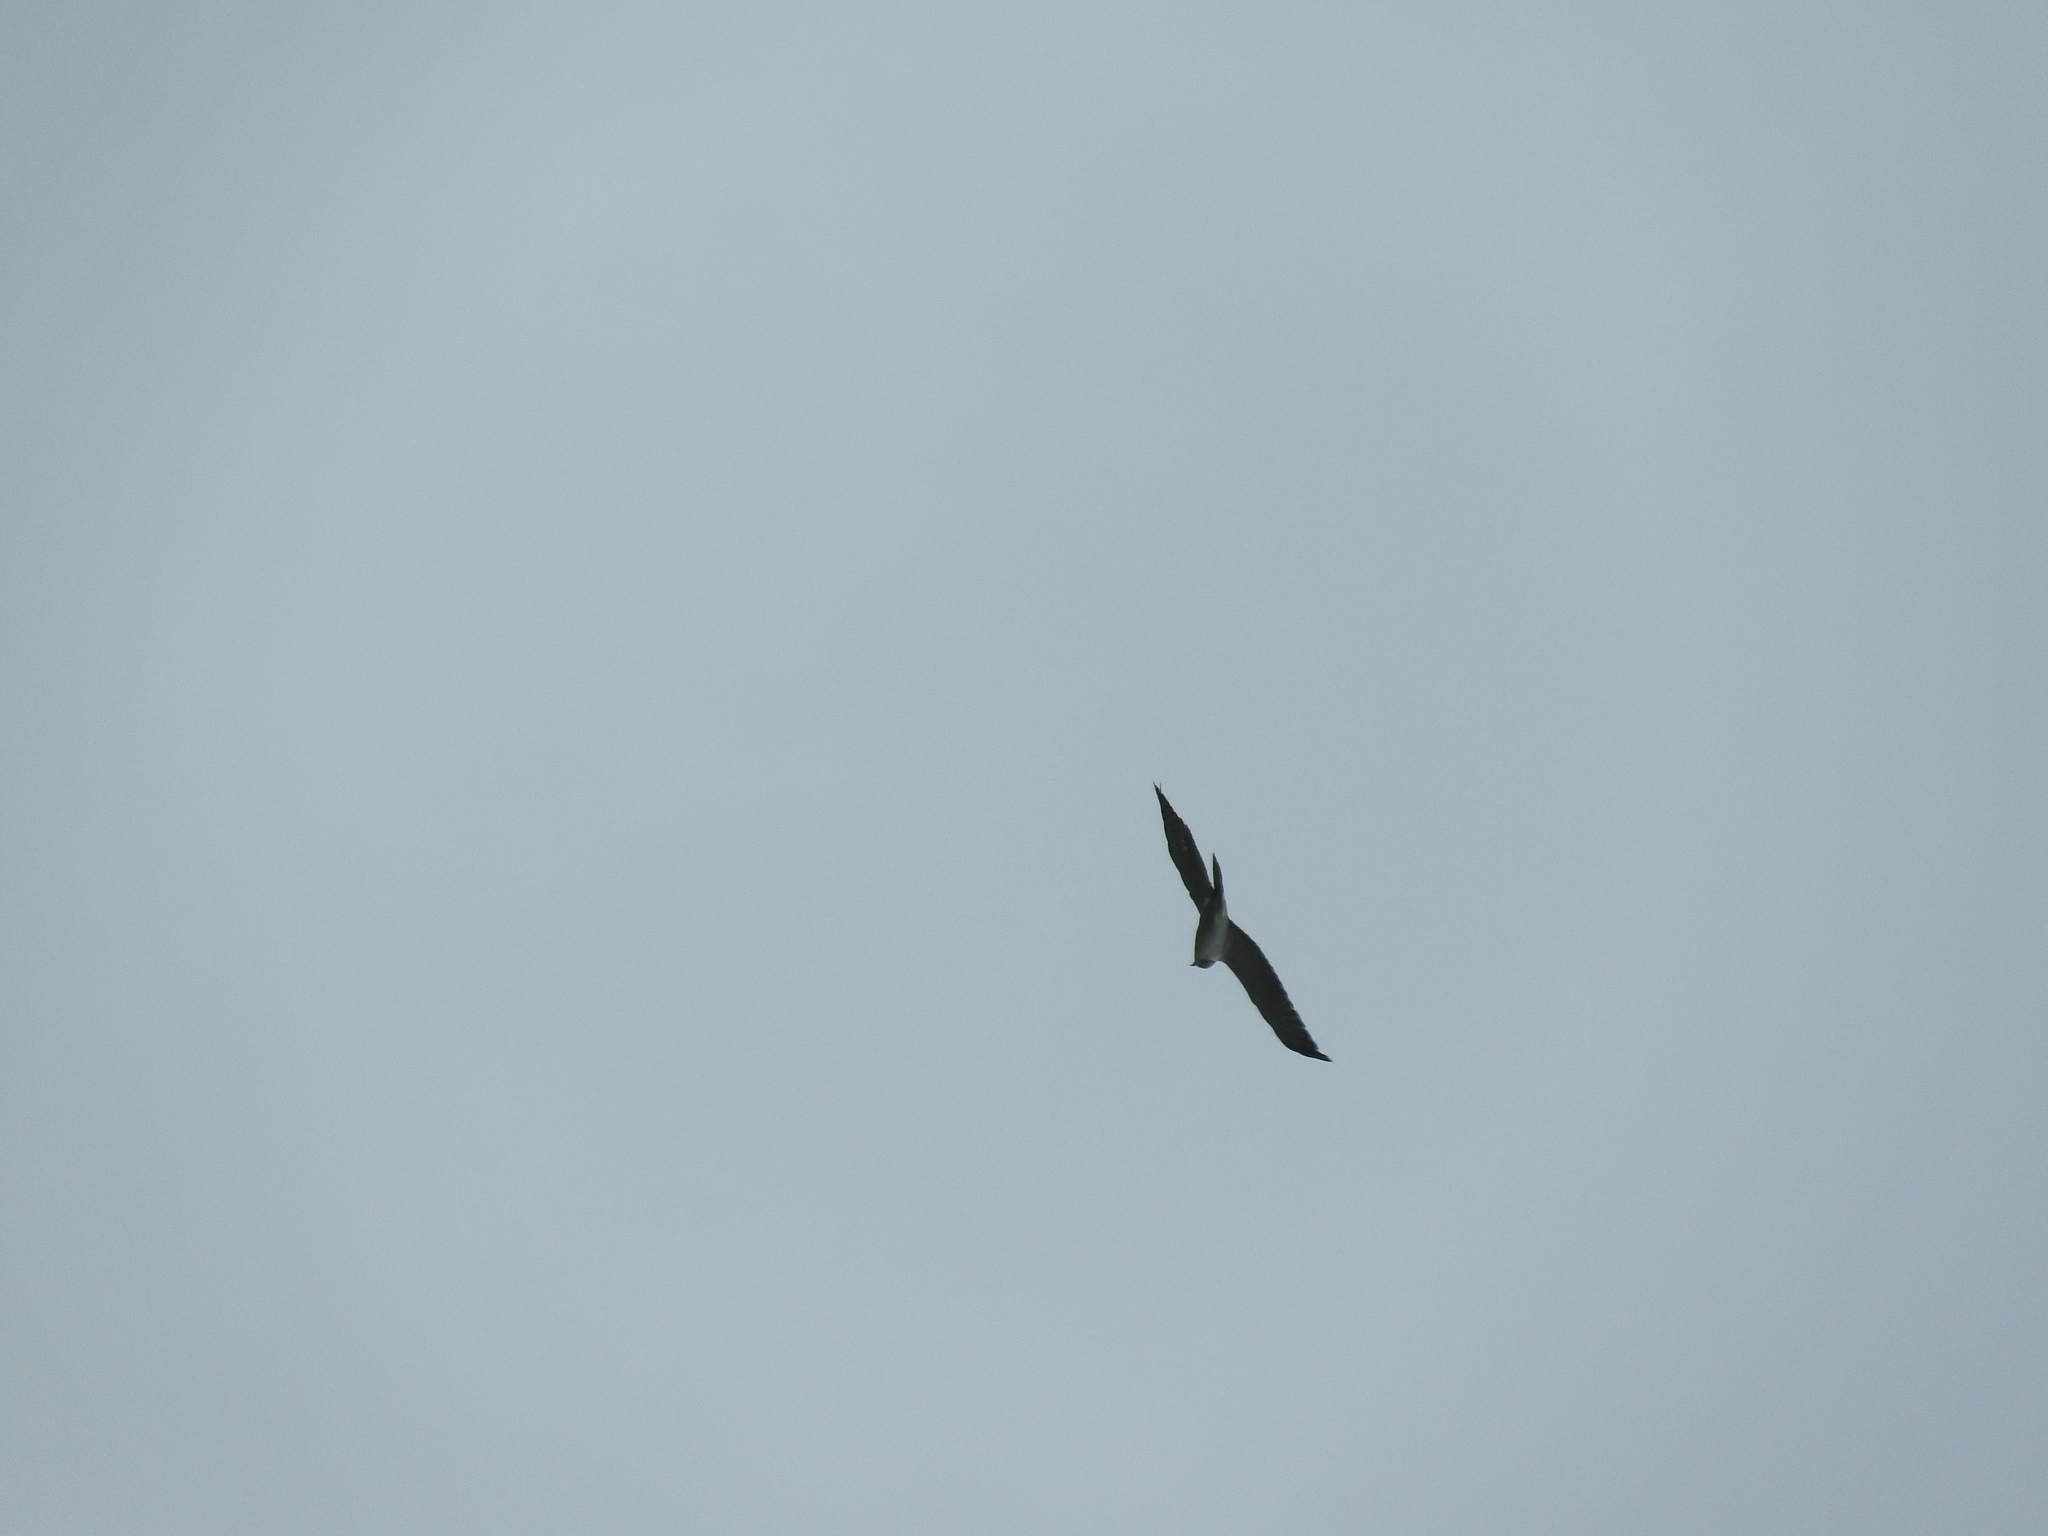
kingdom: Animalia
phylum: Chordata
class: Aves
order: Accipitriformes
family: Accipitridae
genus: Buteo
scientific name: Buteo albicaudatus
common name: White-tailed hawk
